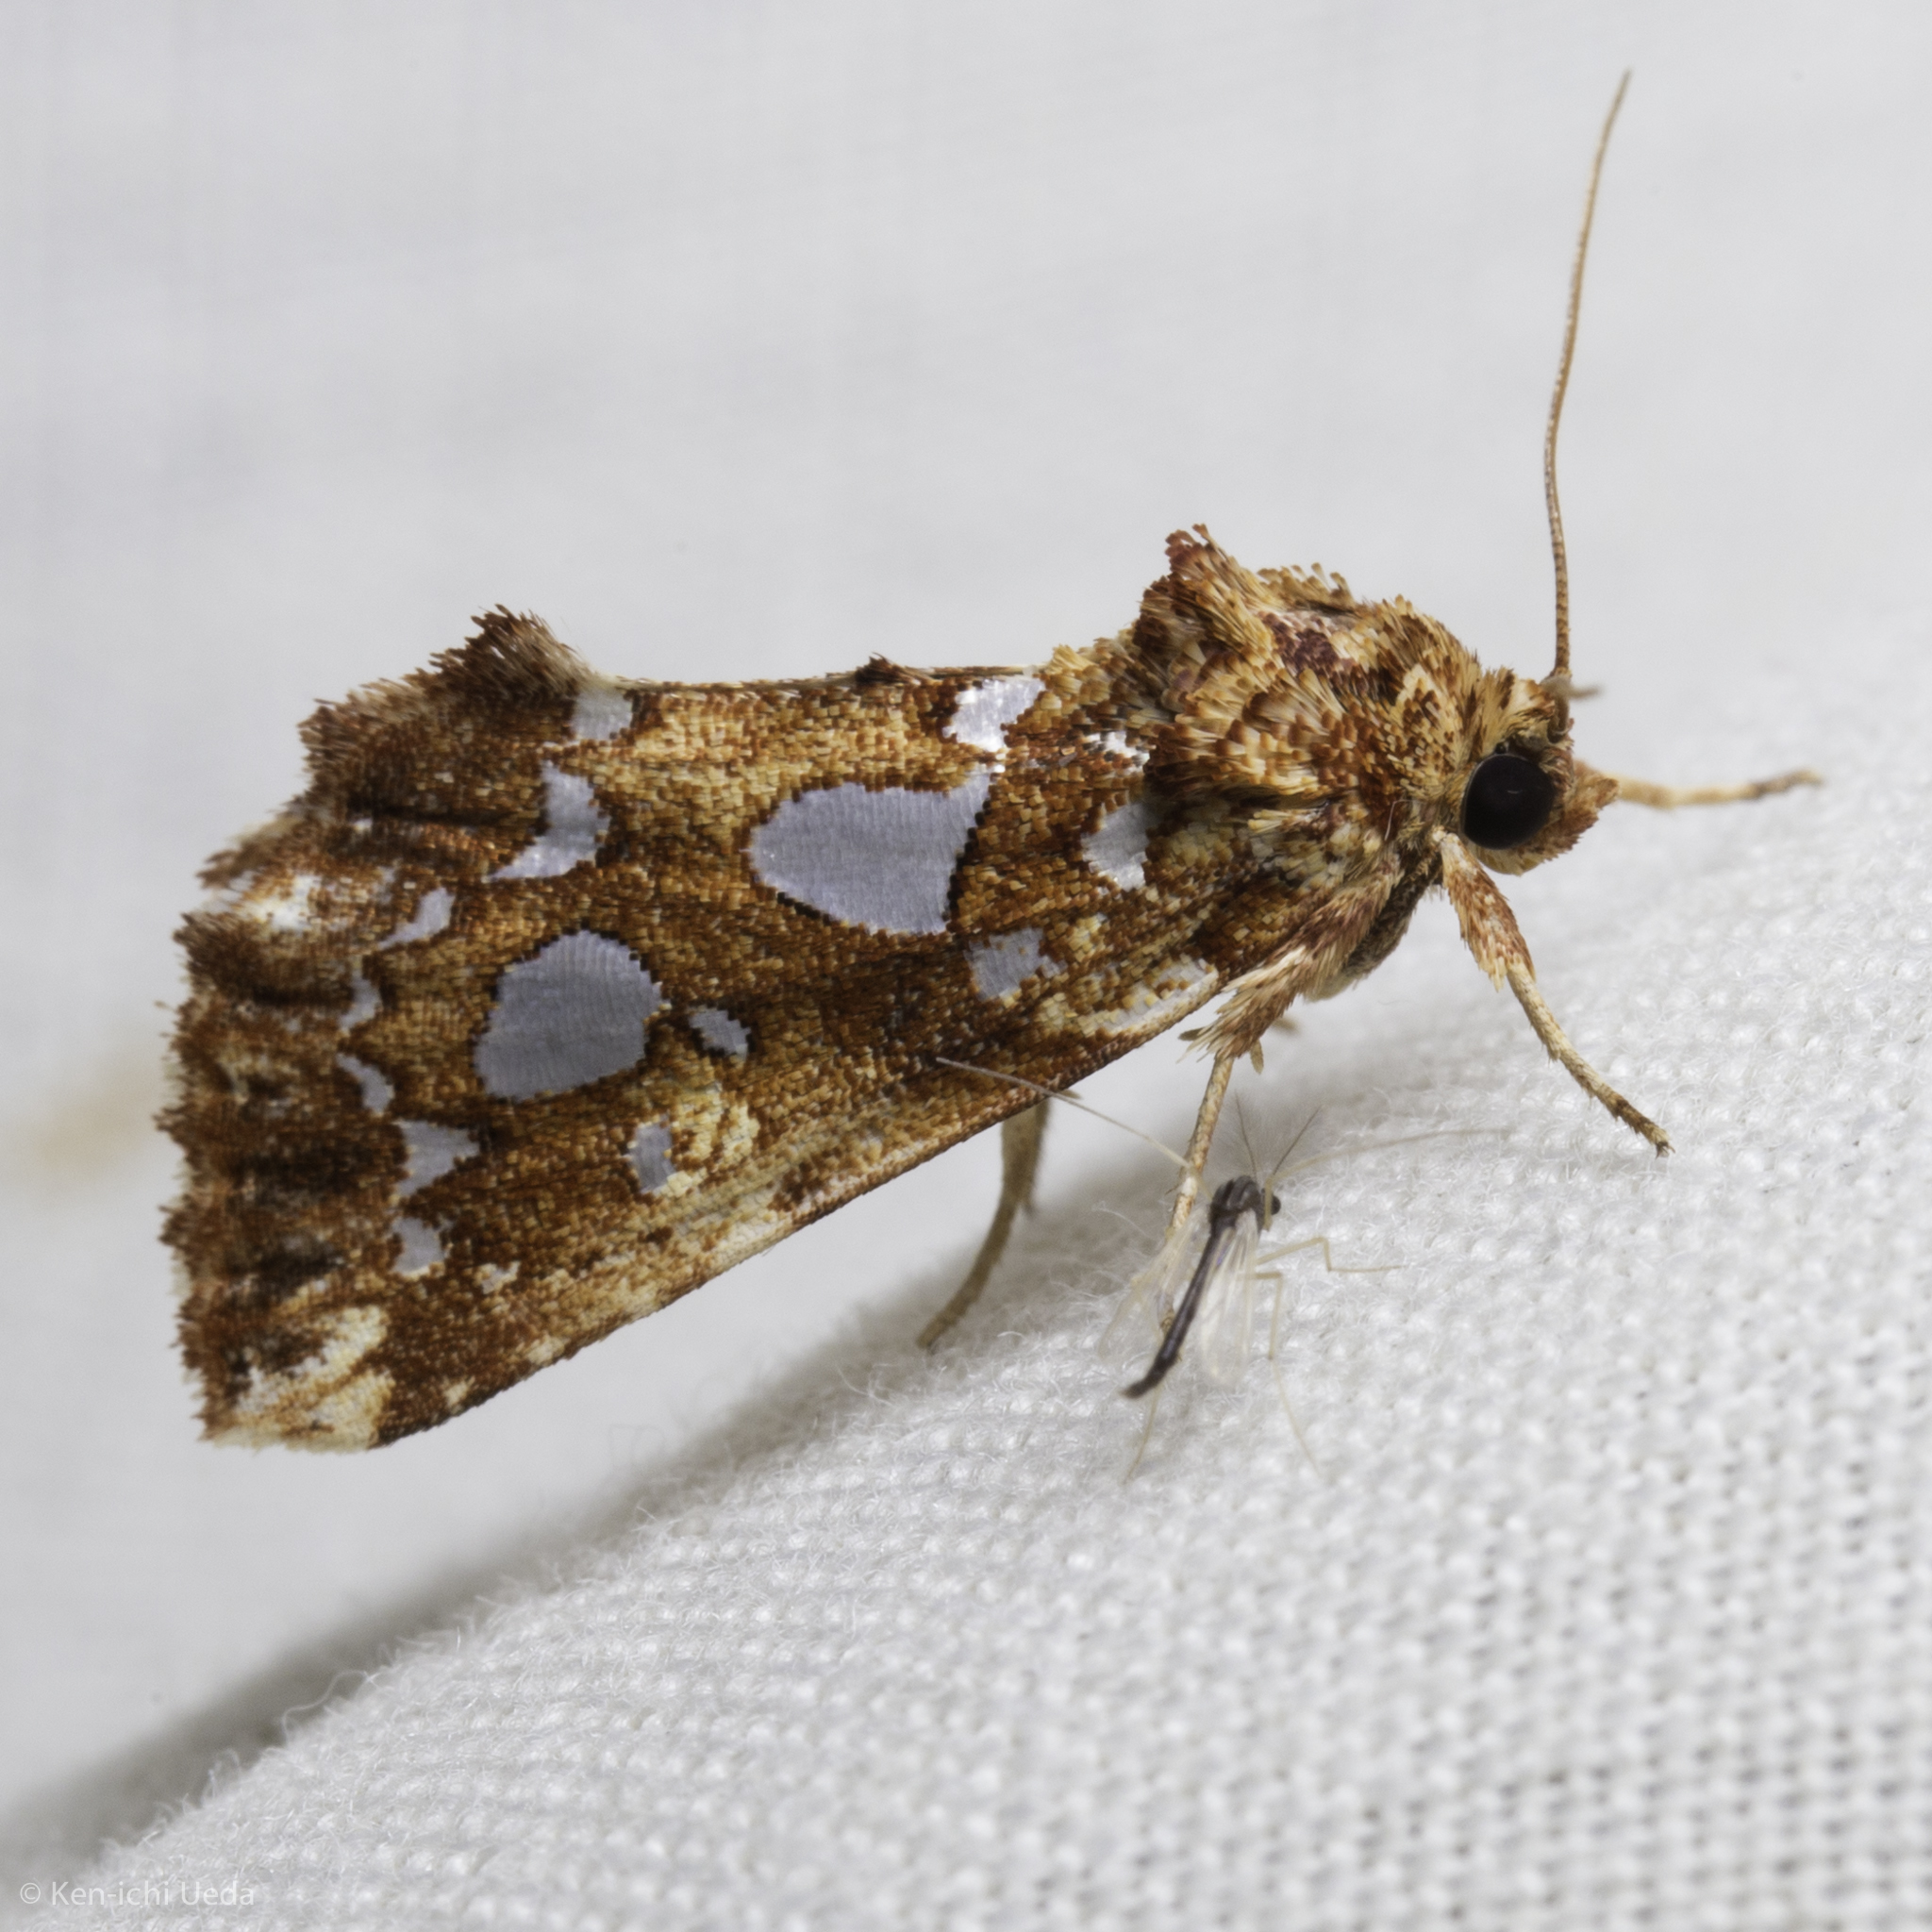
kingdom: Animalia
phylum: Arthropoda
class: Insecta
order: Lepidoptera
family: Noctuidae
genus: Callopistria
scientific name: Callopistria cordata
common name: Silver-spotted fern moth
